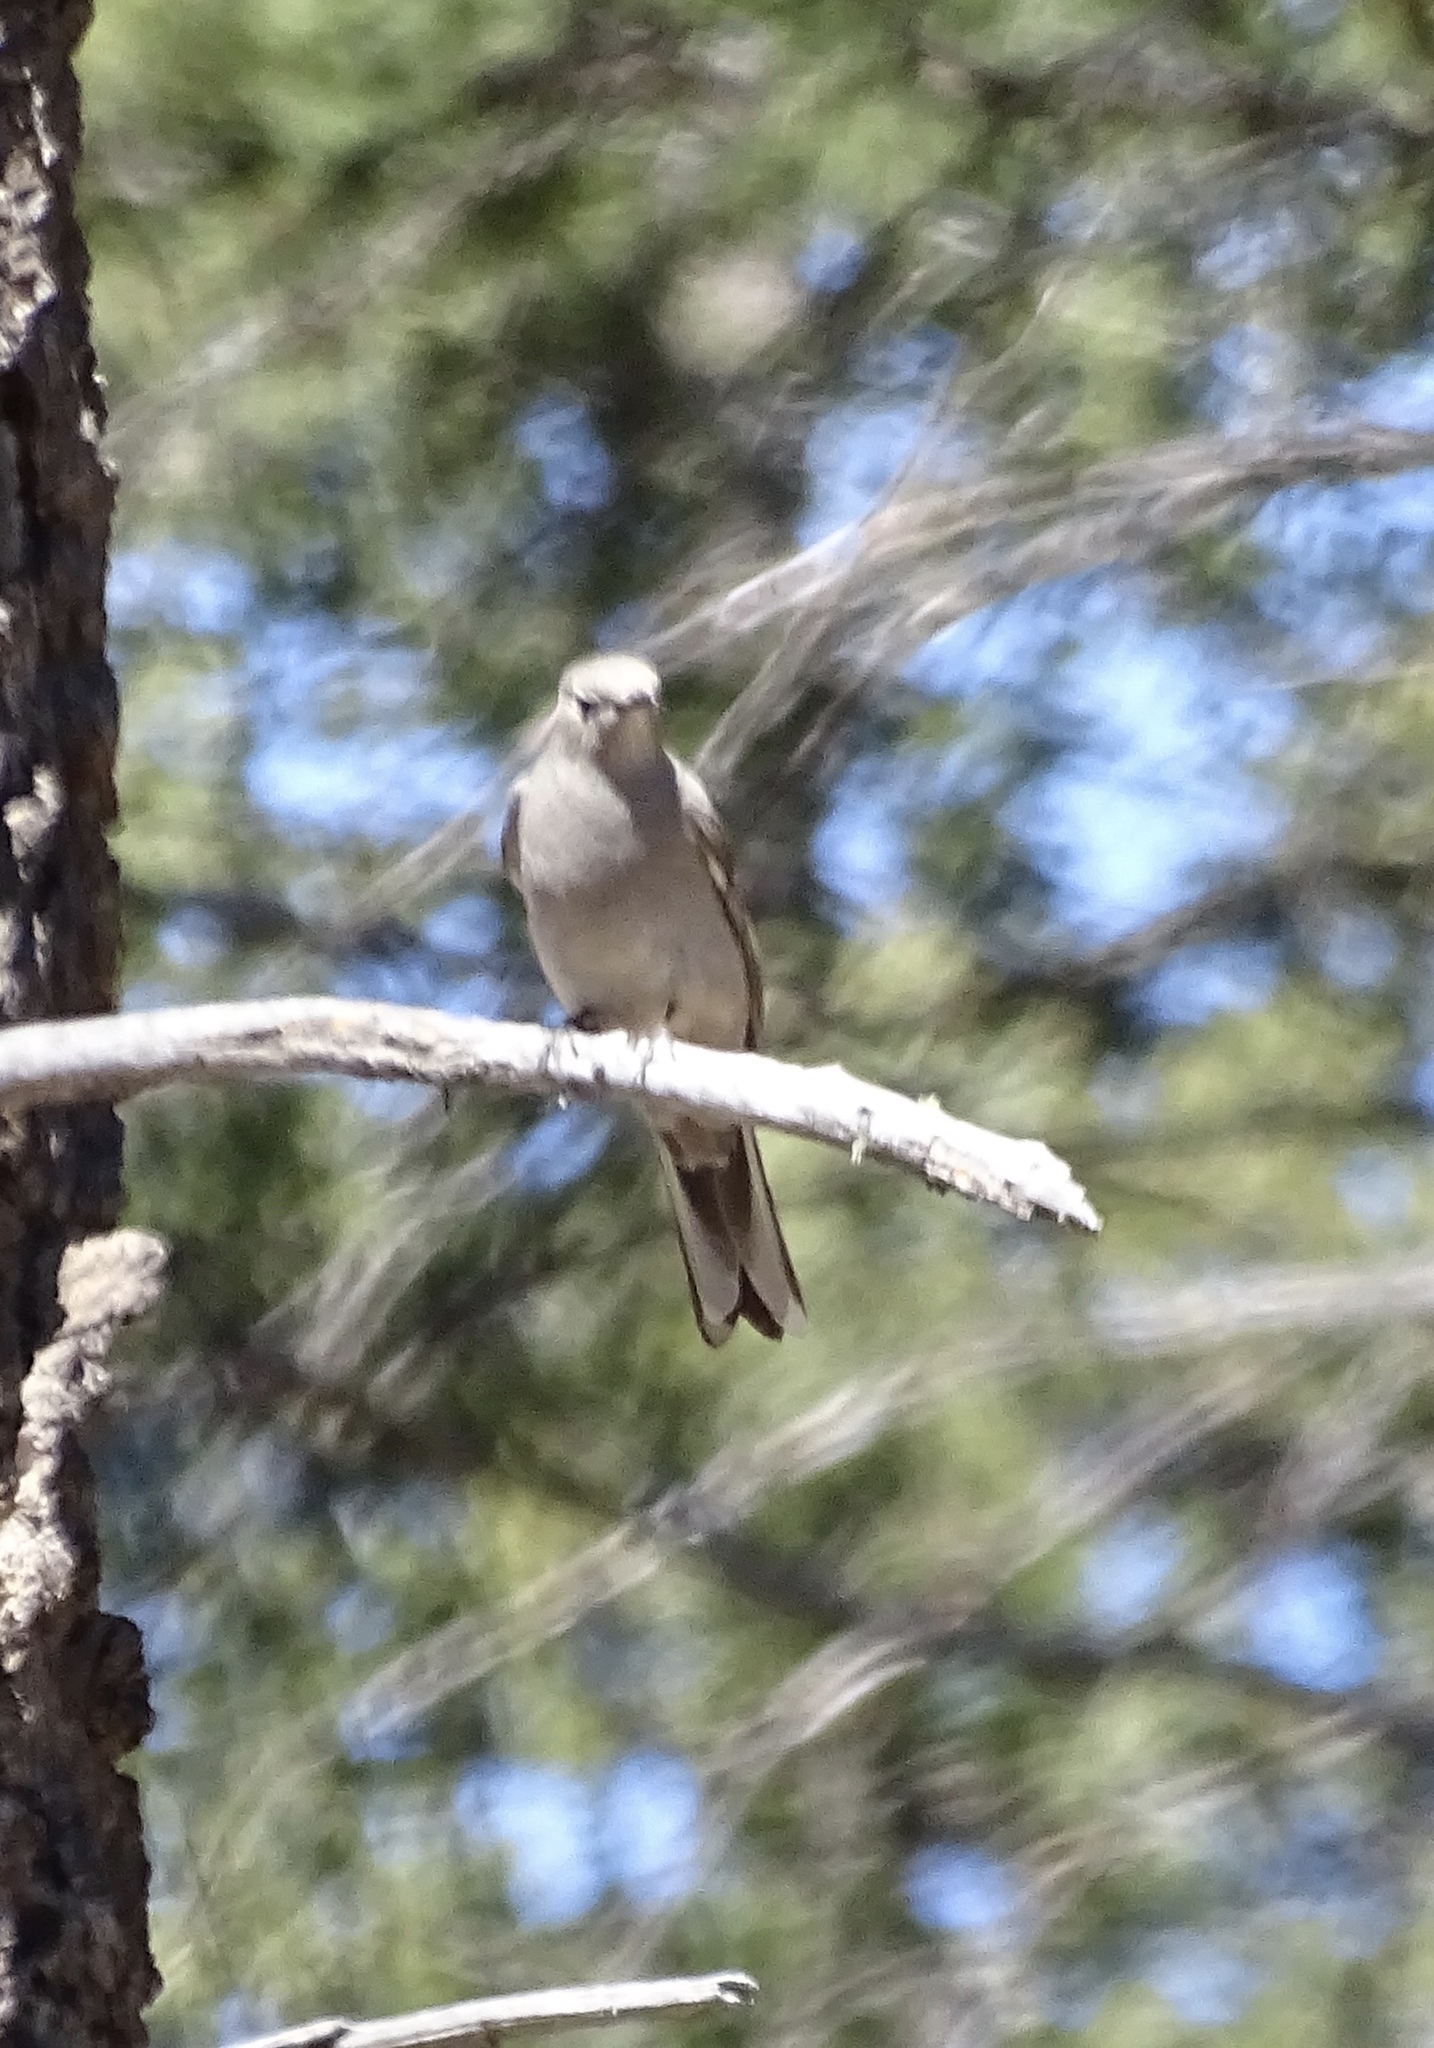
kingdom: Animalia
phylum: Chordata
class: Aves
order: Passeriformes
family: Turdidae
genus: Myadestes
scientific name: Myadestes townsendi
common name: Townsend's solitaire
